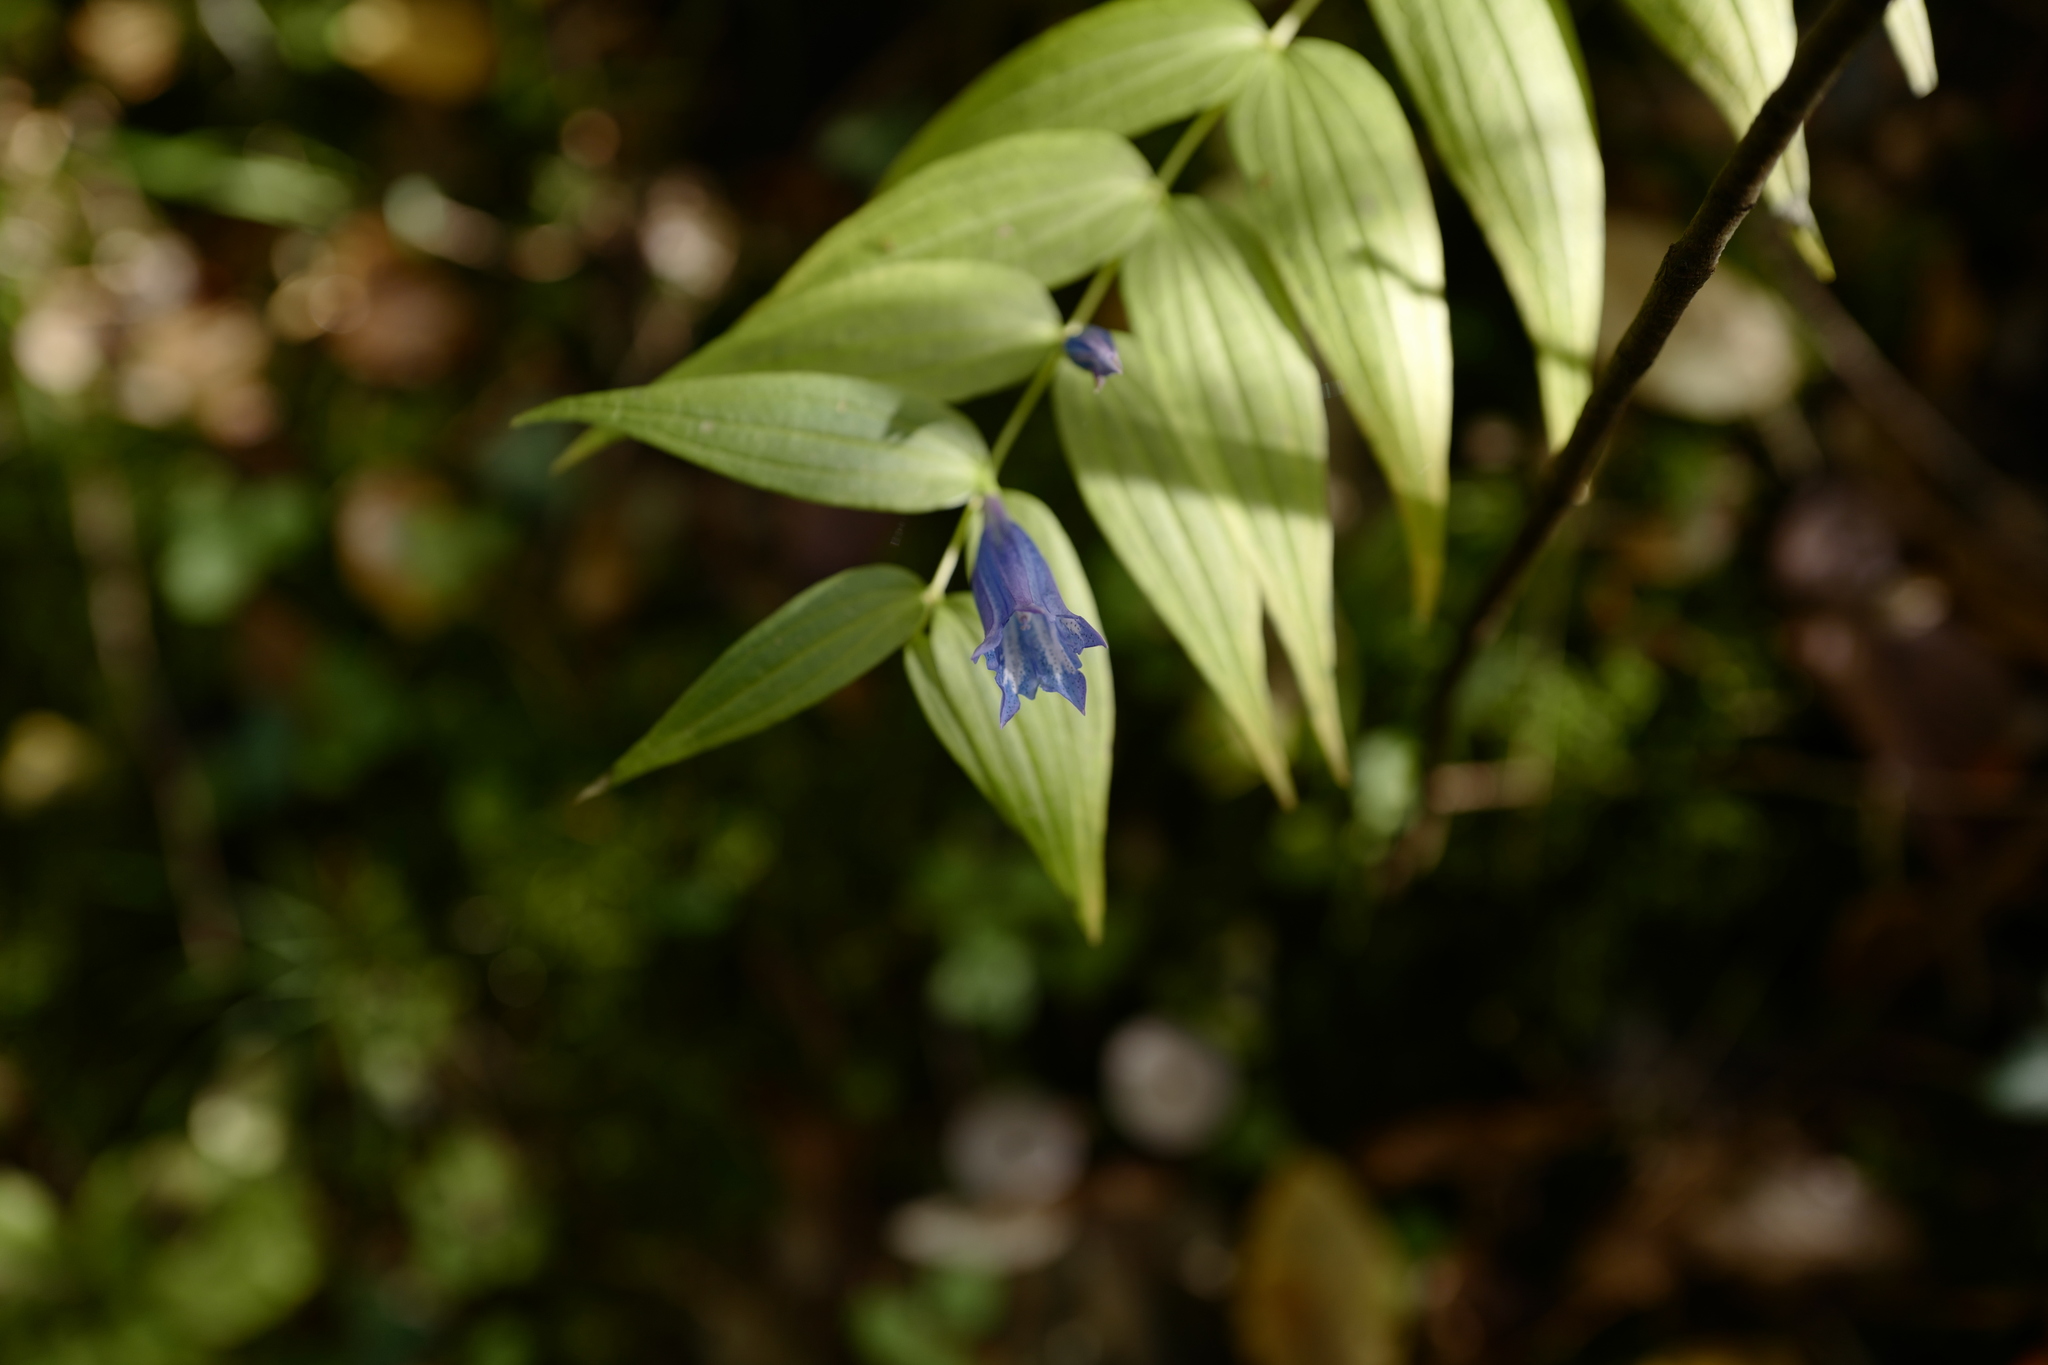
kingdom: Plantae
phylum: Tracheophyta
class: Magnoliopsida
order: Gentianales
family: Gentianaceae
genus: Gentiana
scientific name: Gentiana asclepiadea
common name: Willow gentian
